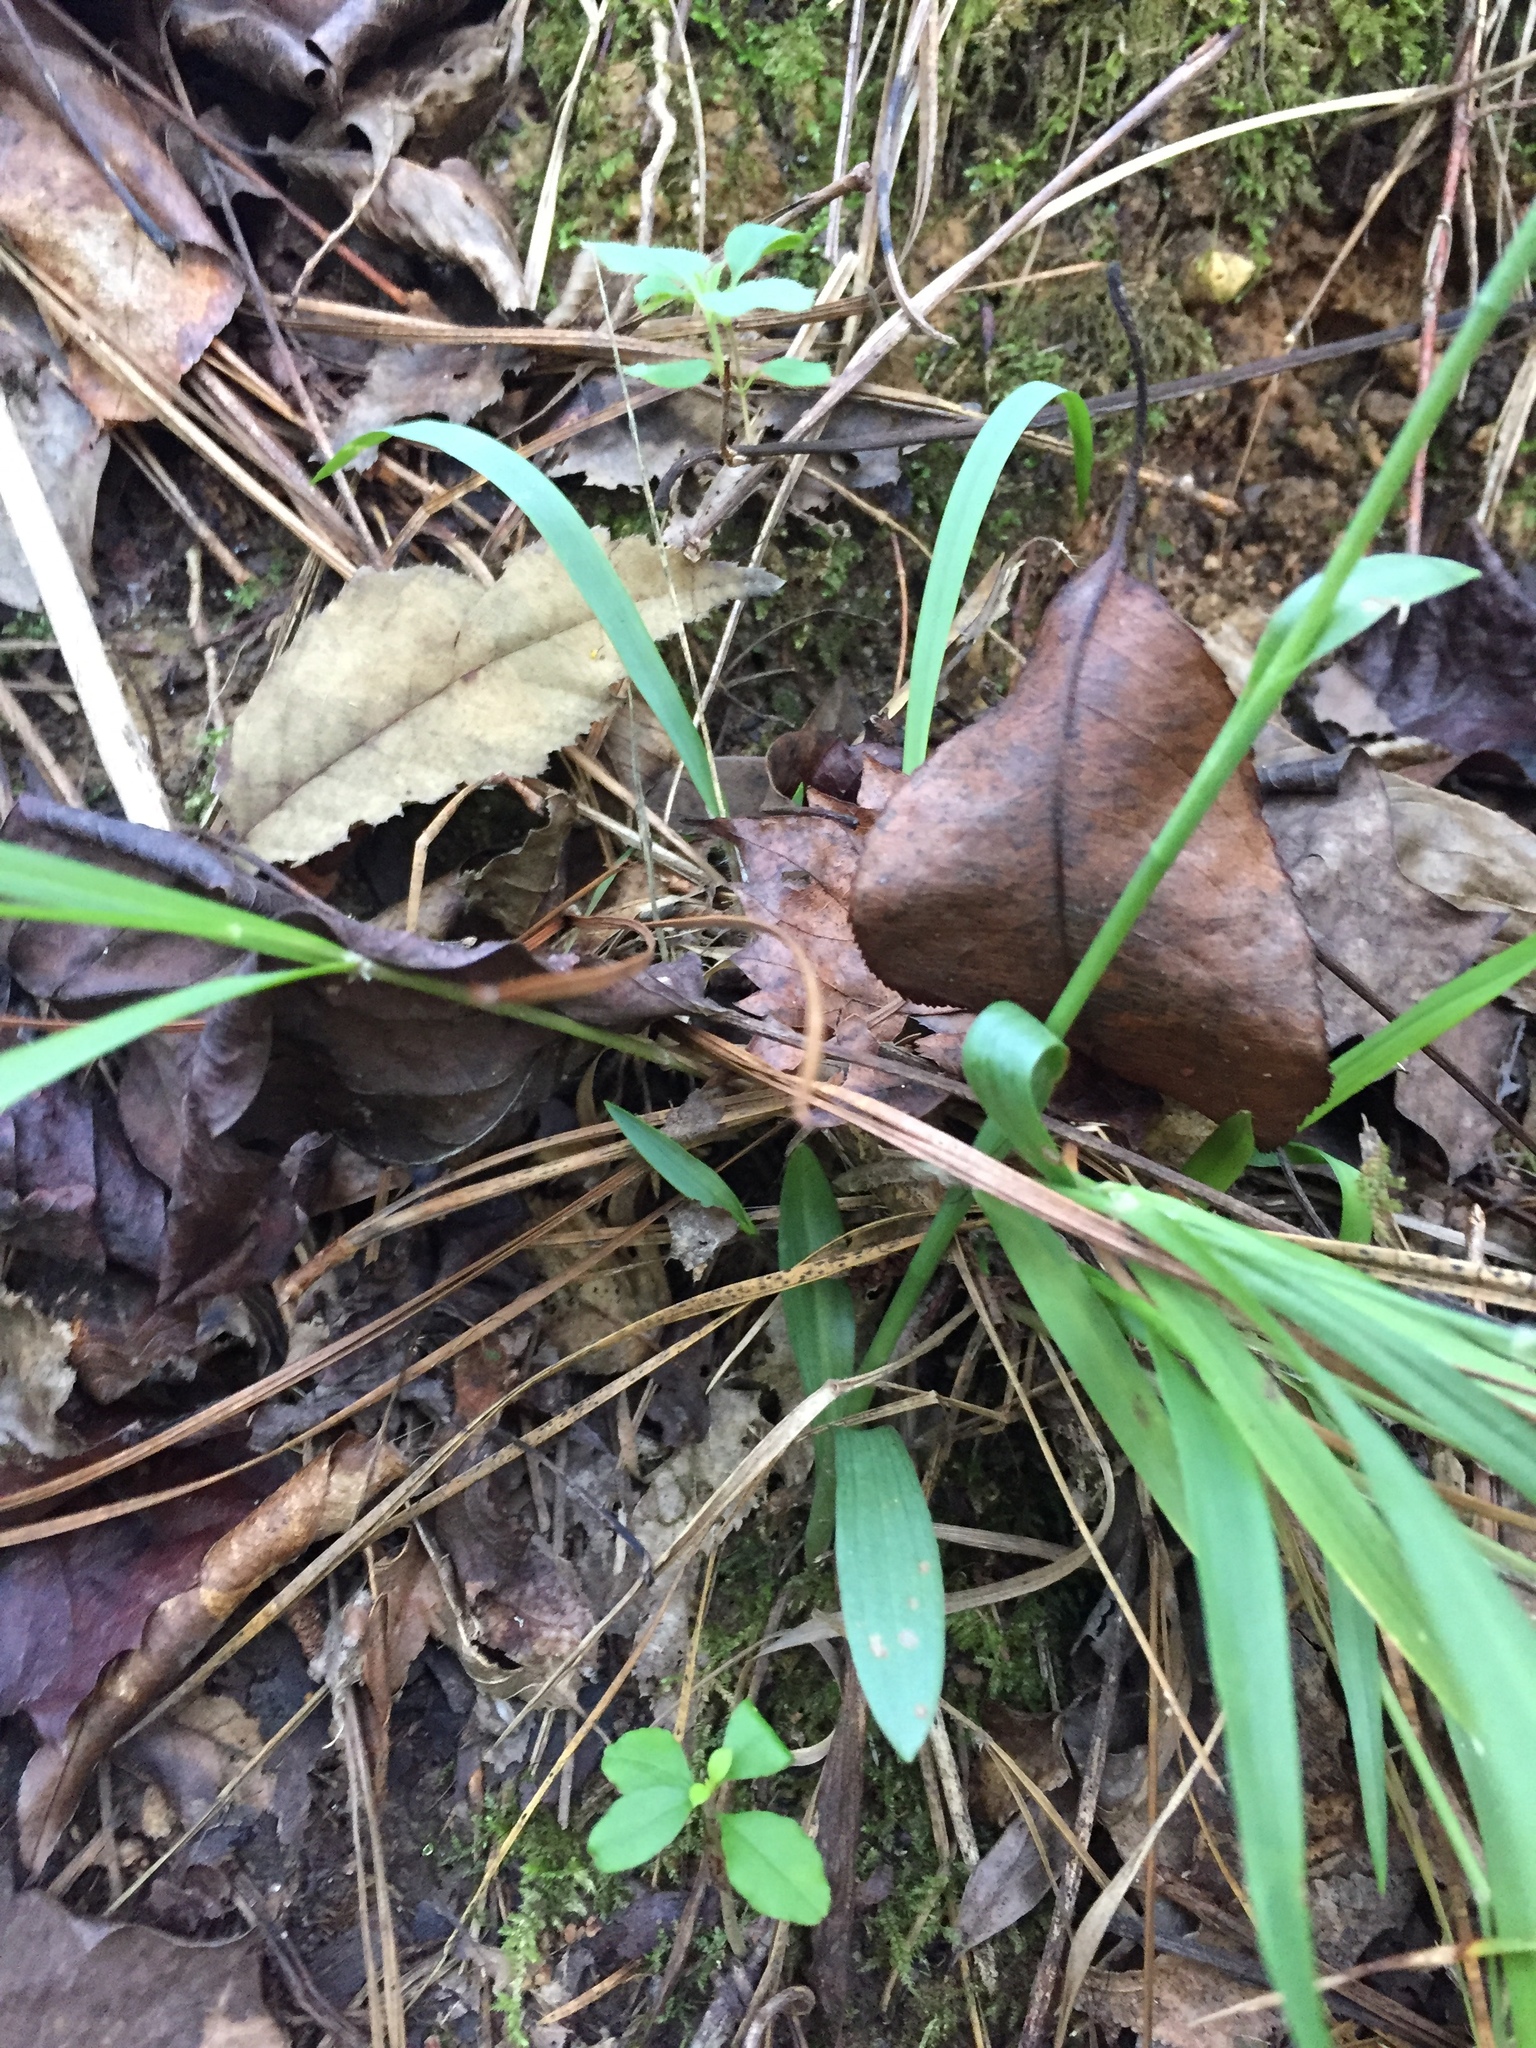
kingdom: Plantae
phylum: Tracheophyta
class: Liliopsida
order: Asparagales
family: Orchidaceae
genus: Spiranthes
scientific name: Spiranthes ovalis
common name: October ladies'-tresses
